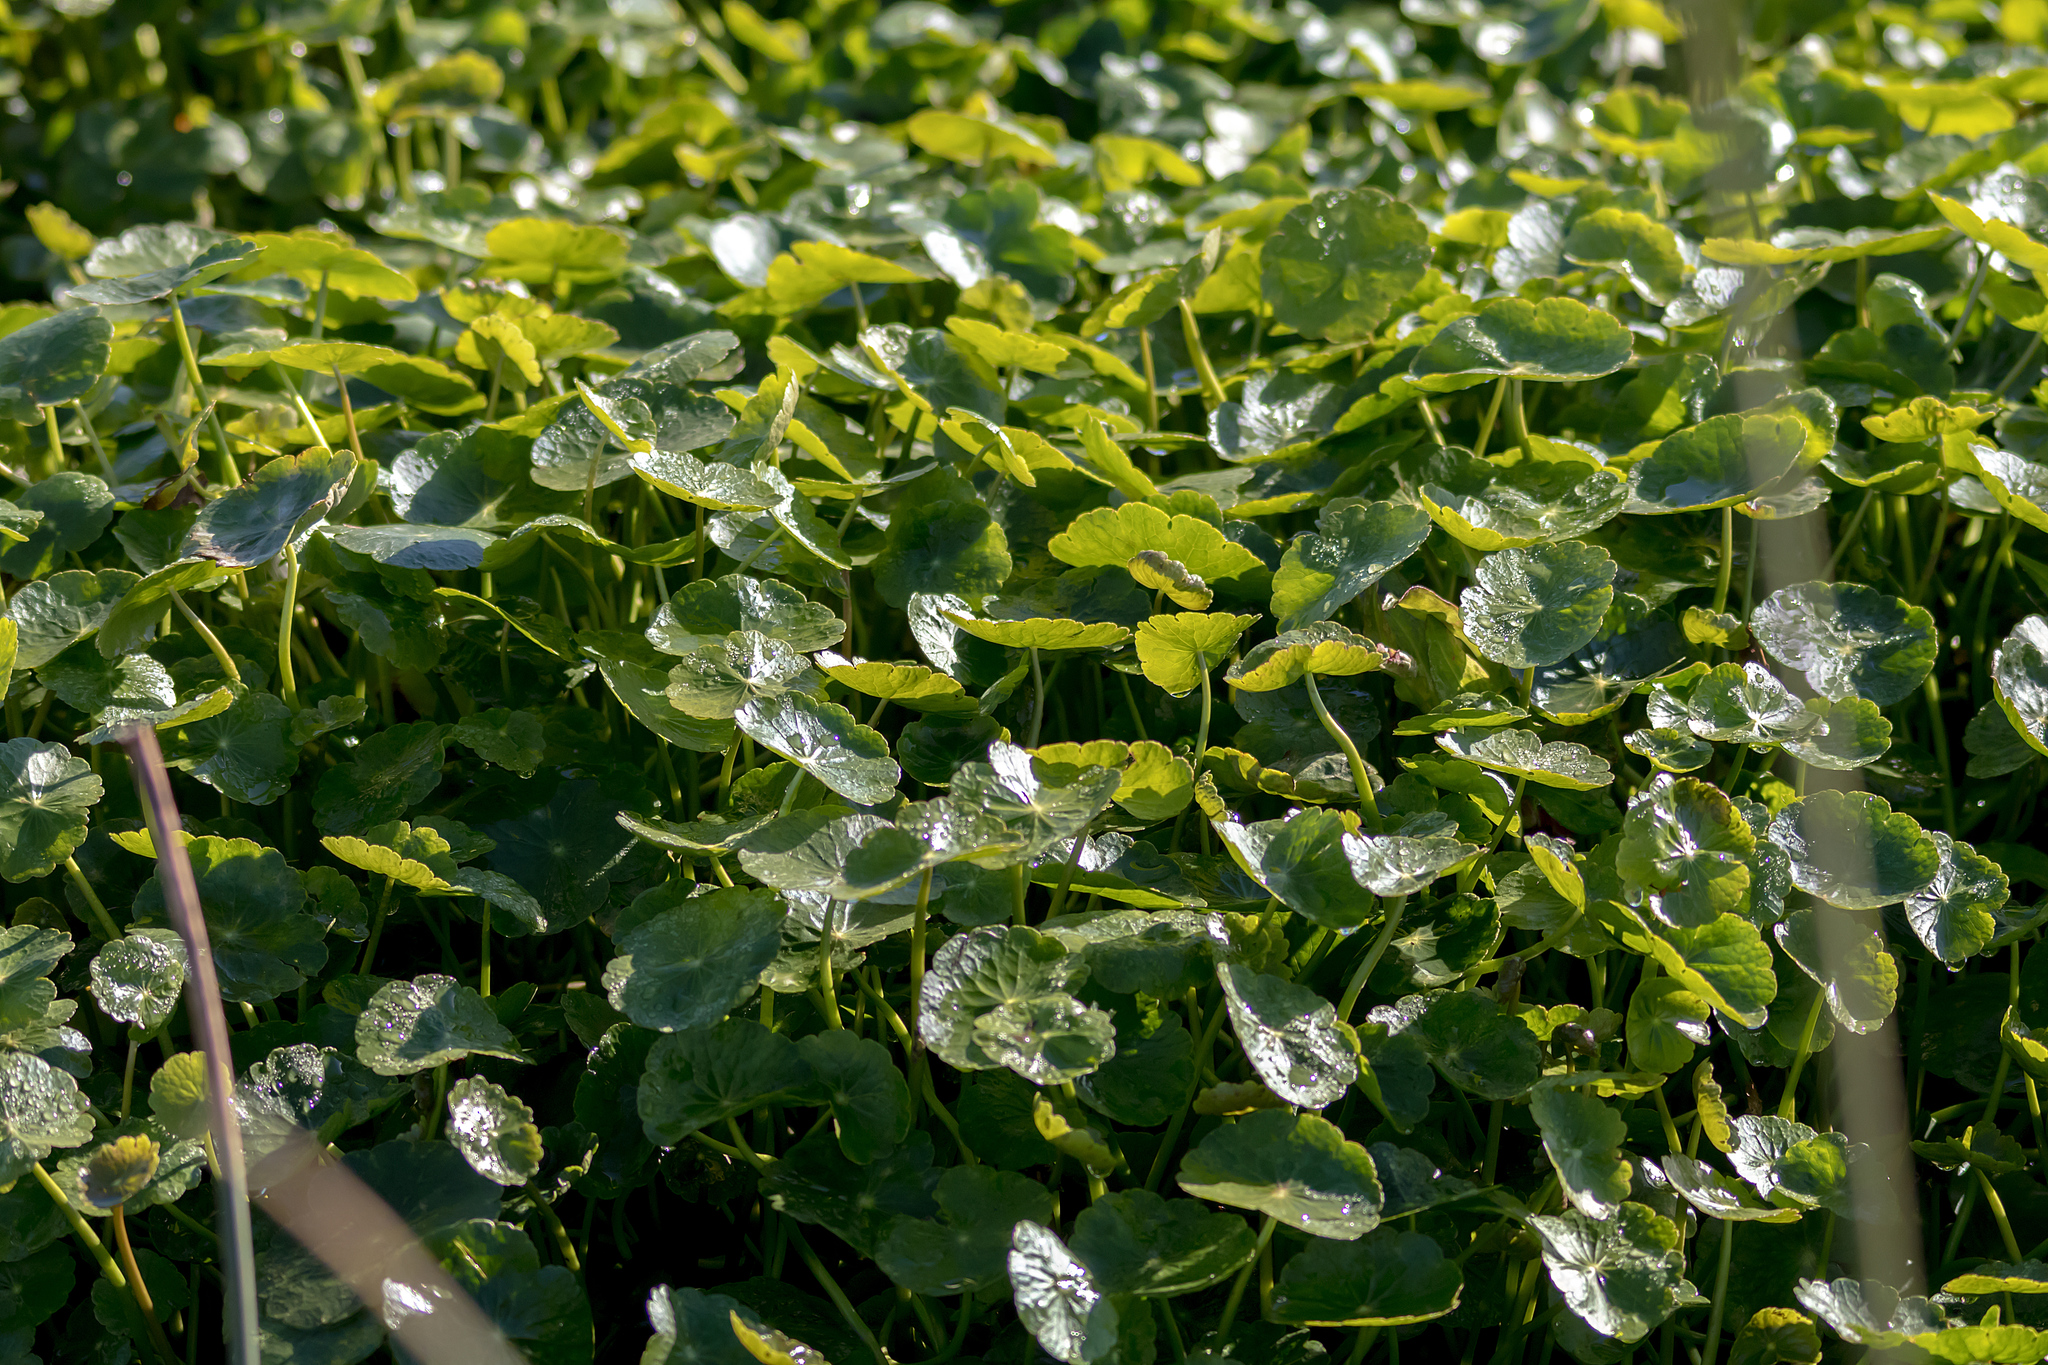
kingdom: Plantae
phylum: Tracheophyta
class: Magnoliopsida
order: Apiales
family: Araliaceae
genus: Hydrocotyle
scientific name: Hydrocotyle verticillata
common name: Whorled marshpennywort
